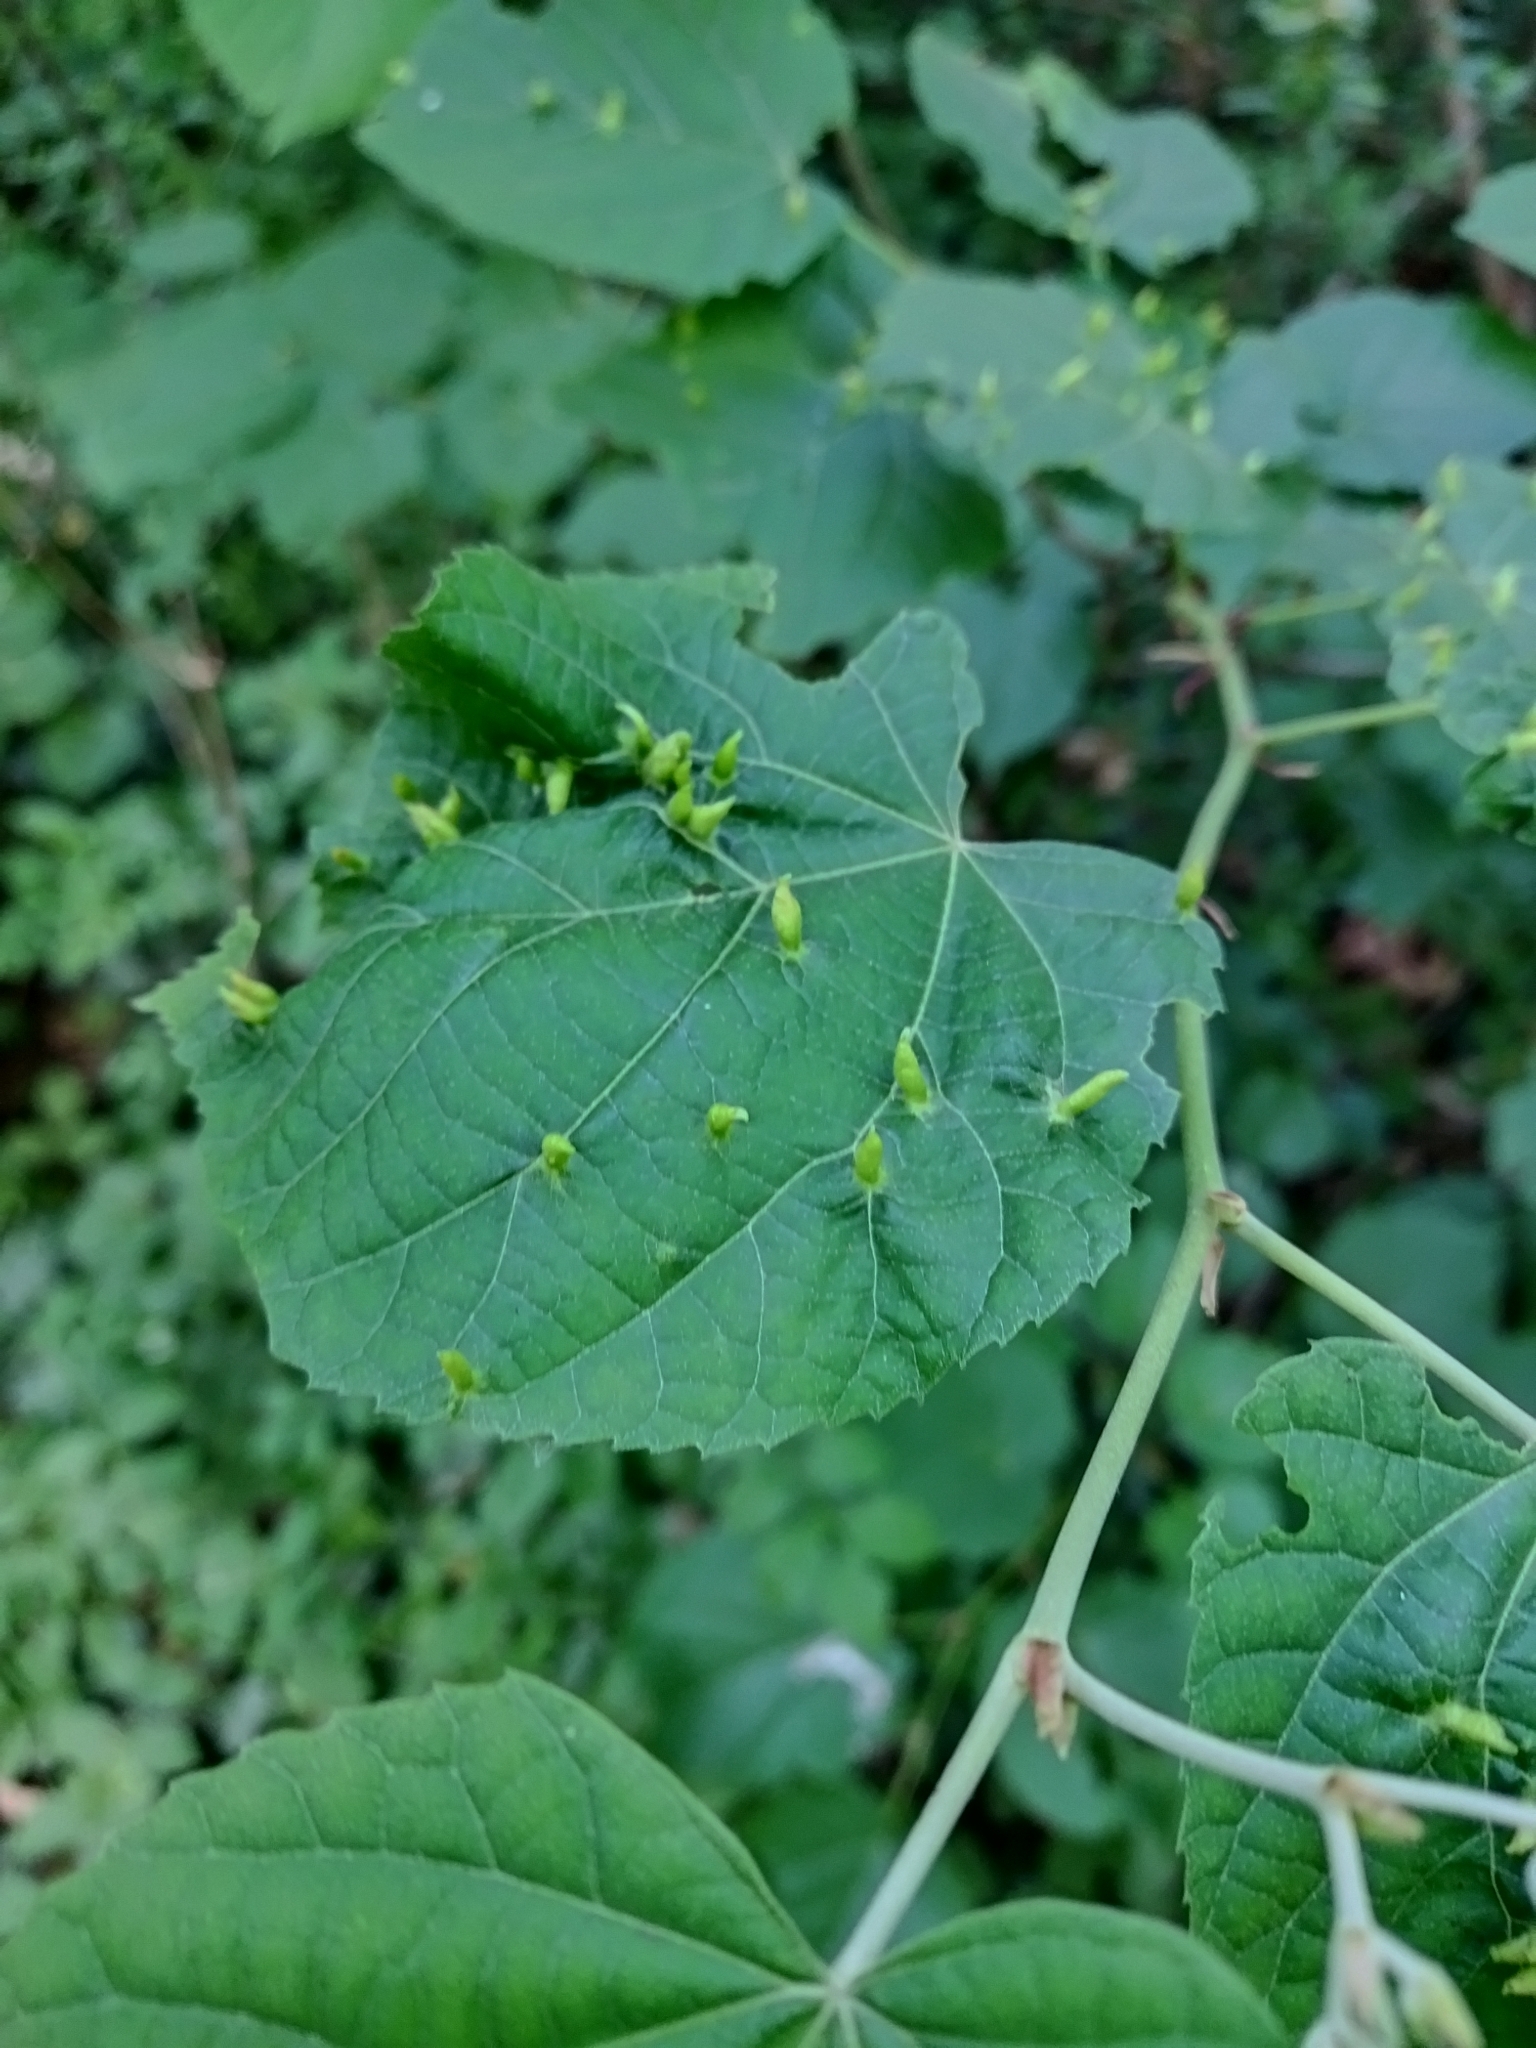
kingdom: Animalia
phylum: Arthropoda
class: Arachnida
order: Trombidiformes
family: Eriophyidae
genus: Eriophyes
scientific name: Eriophyes tiliae
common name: Red nail gall mite
